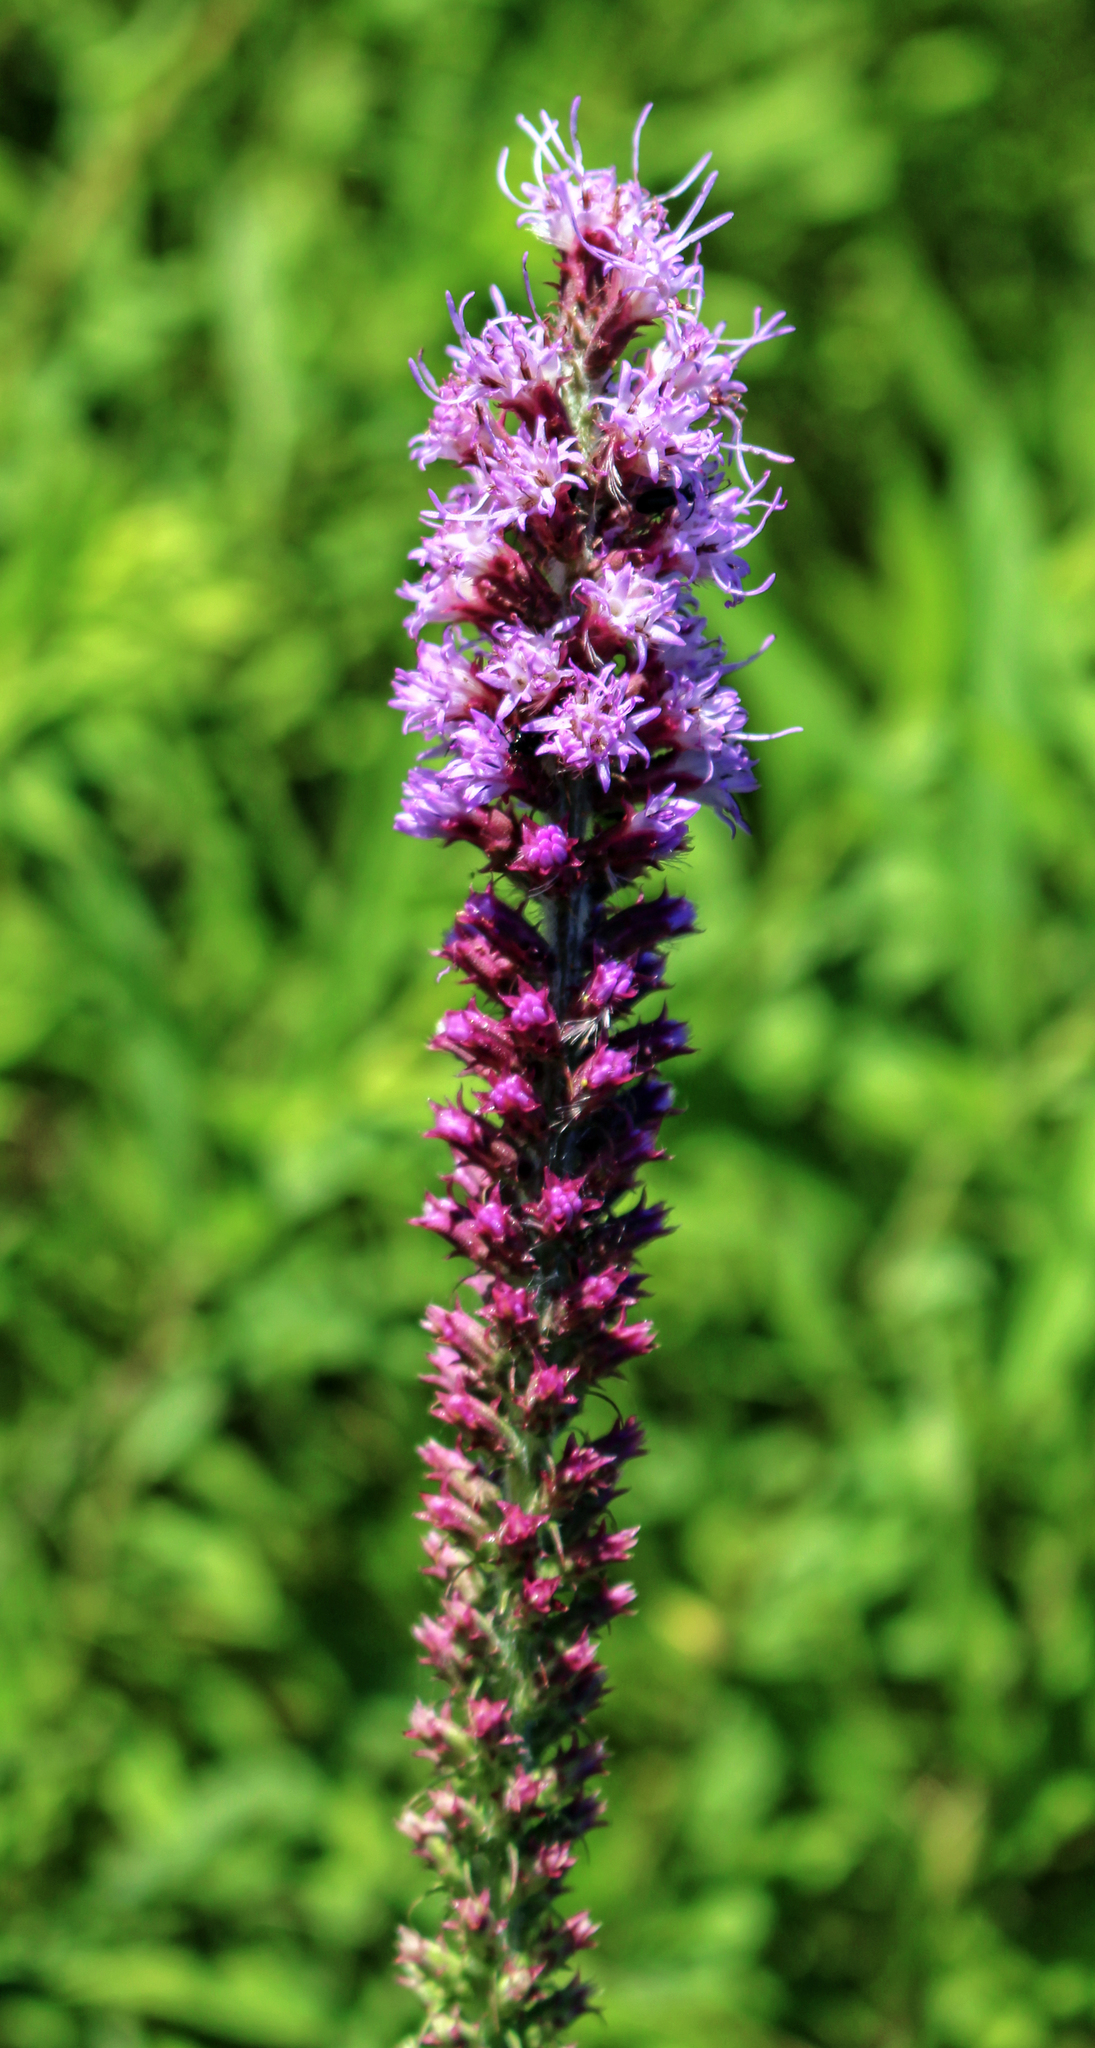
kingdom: Plantae
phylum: Tracheophyta
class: Magnoliopsida
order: Asterales
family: Asteraceae
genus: Liatris
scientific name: Liatris pycnostachya
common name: Cattail gayfeather
